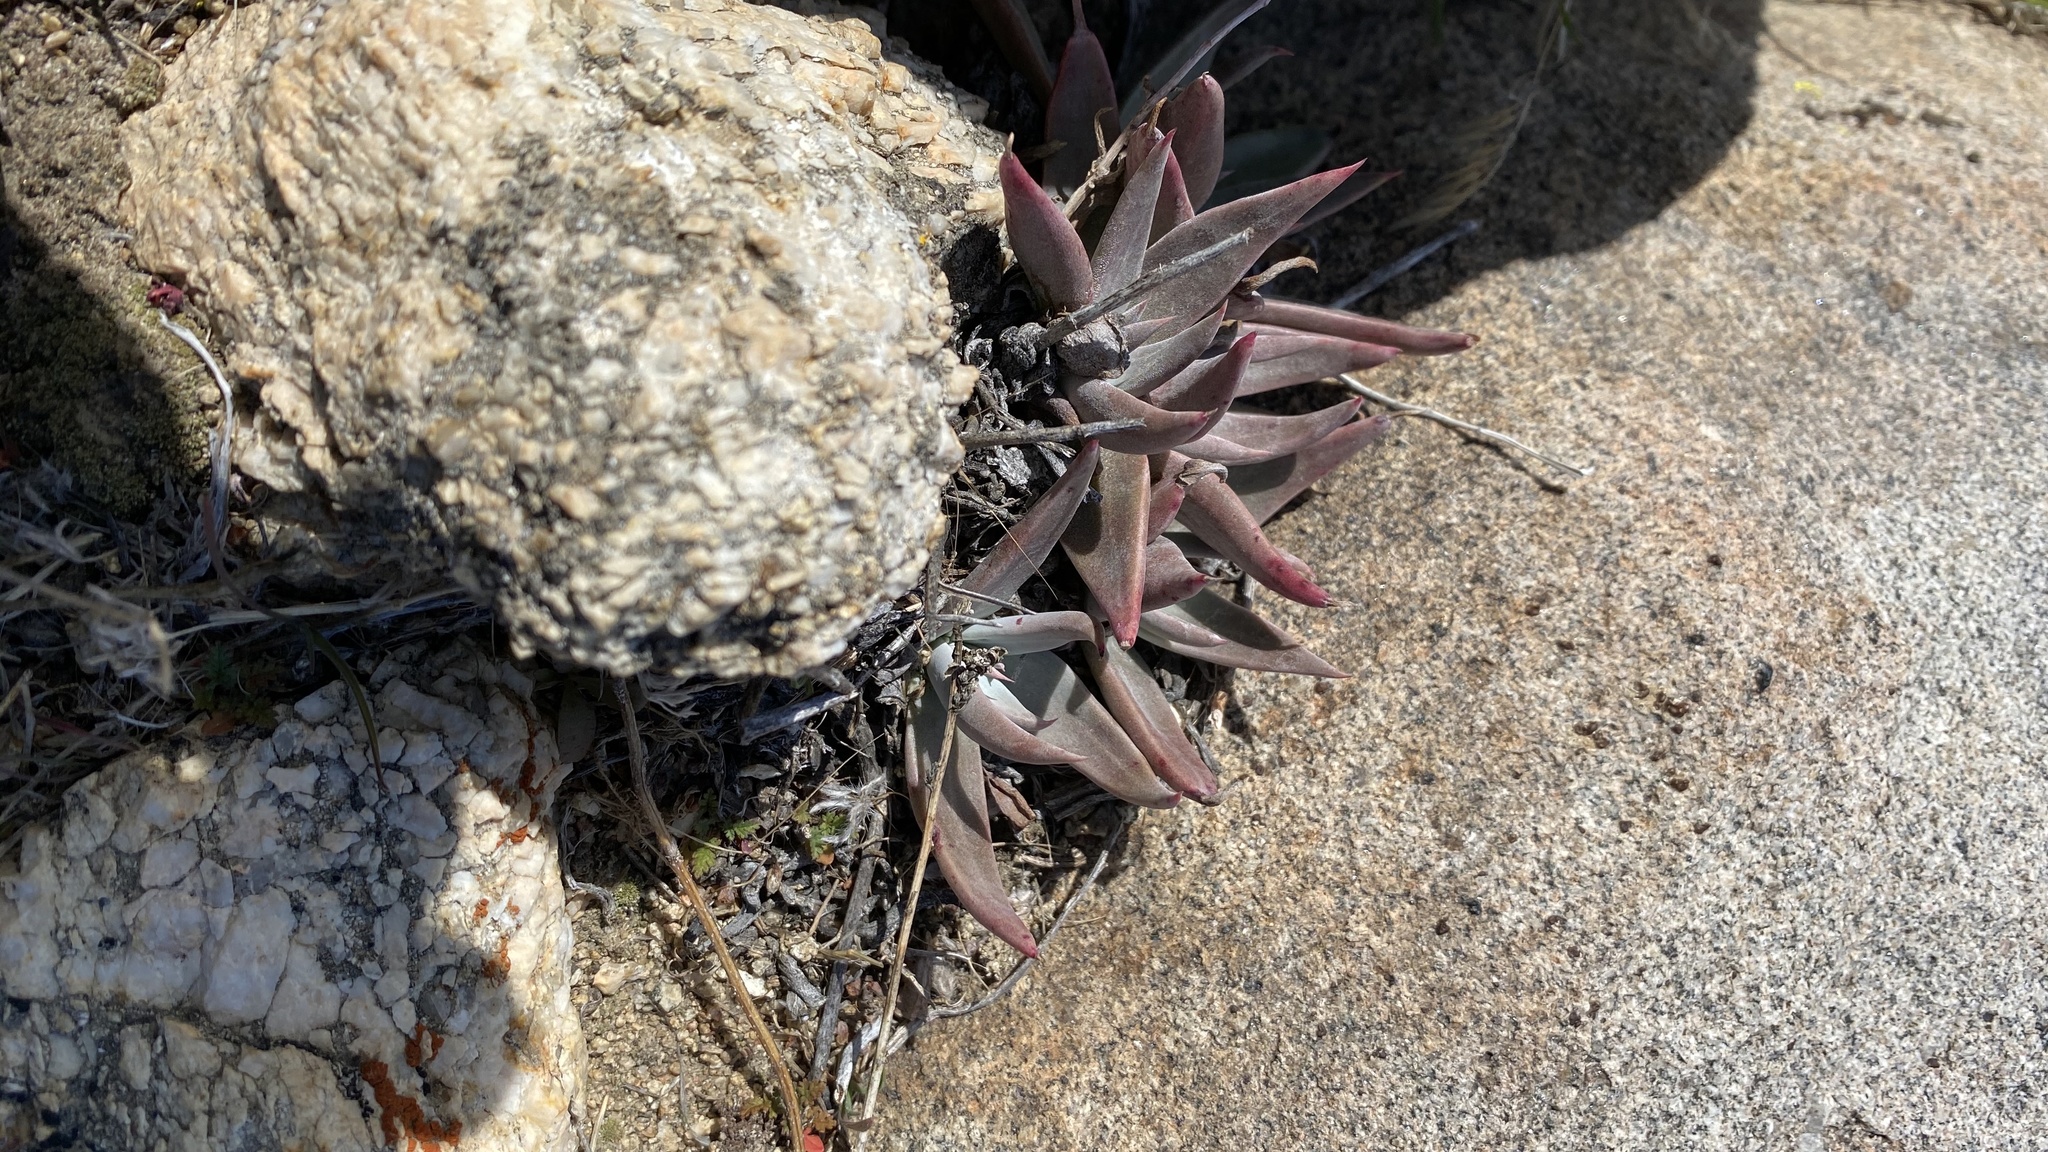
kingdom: Plantae
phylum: Tracheophyta
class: Magnoliopsida
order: Saxifragales
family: Crassulaceae
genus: Dudleya
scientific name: Dudleya calcicola
